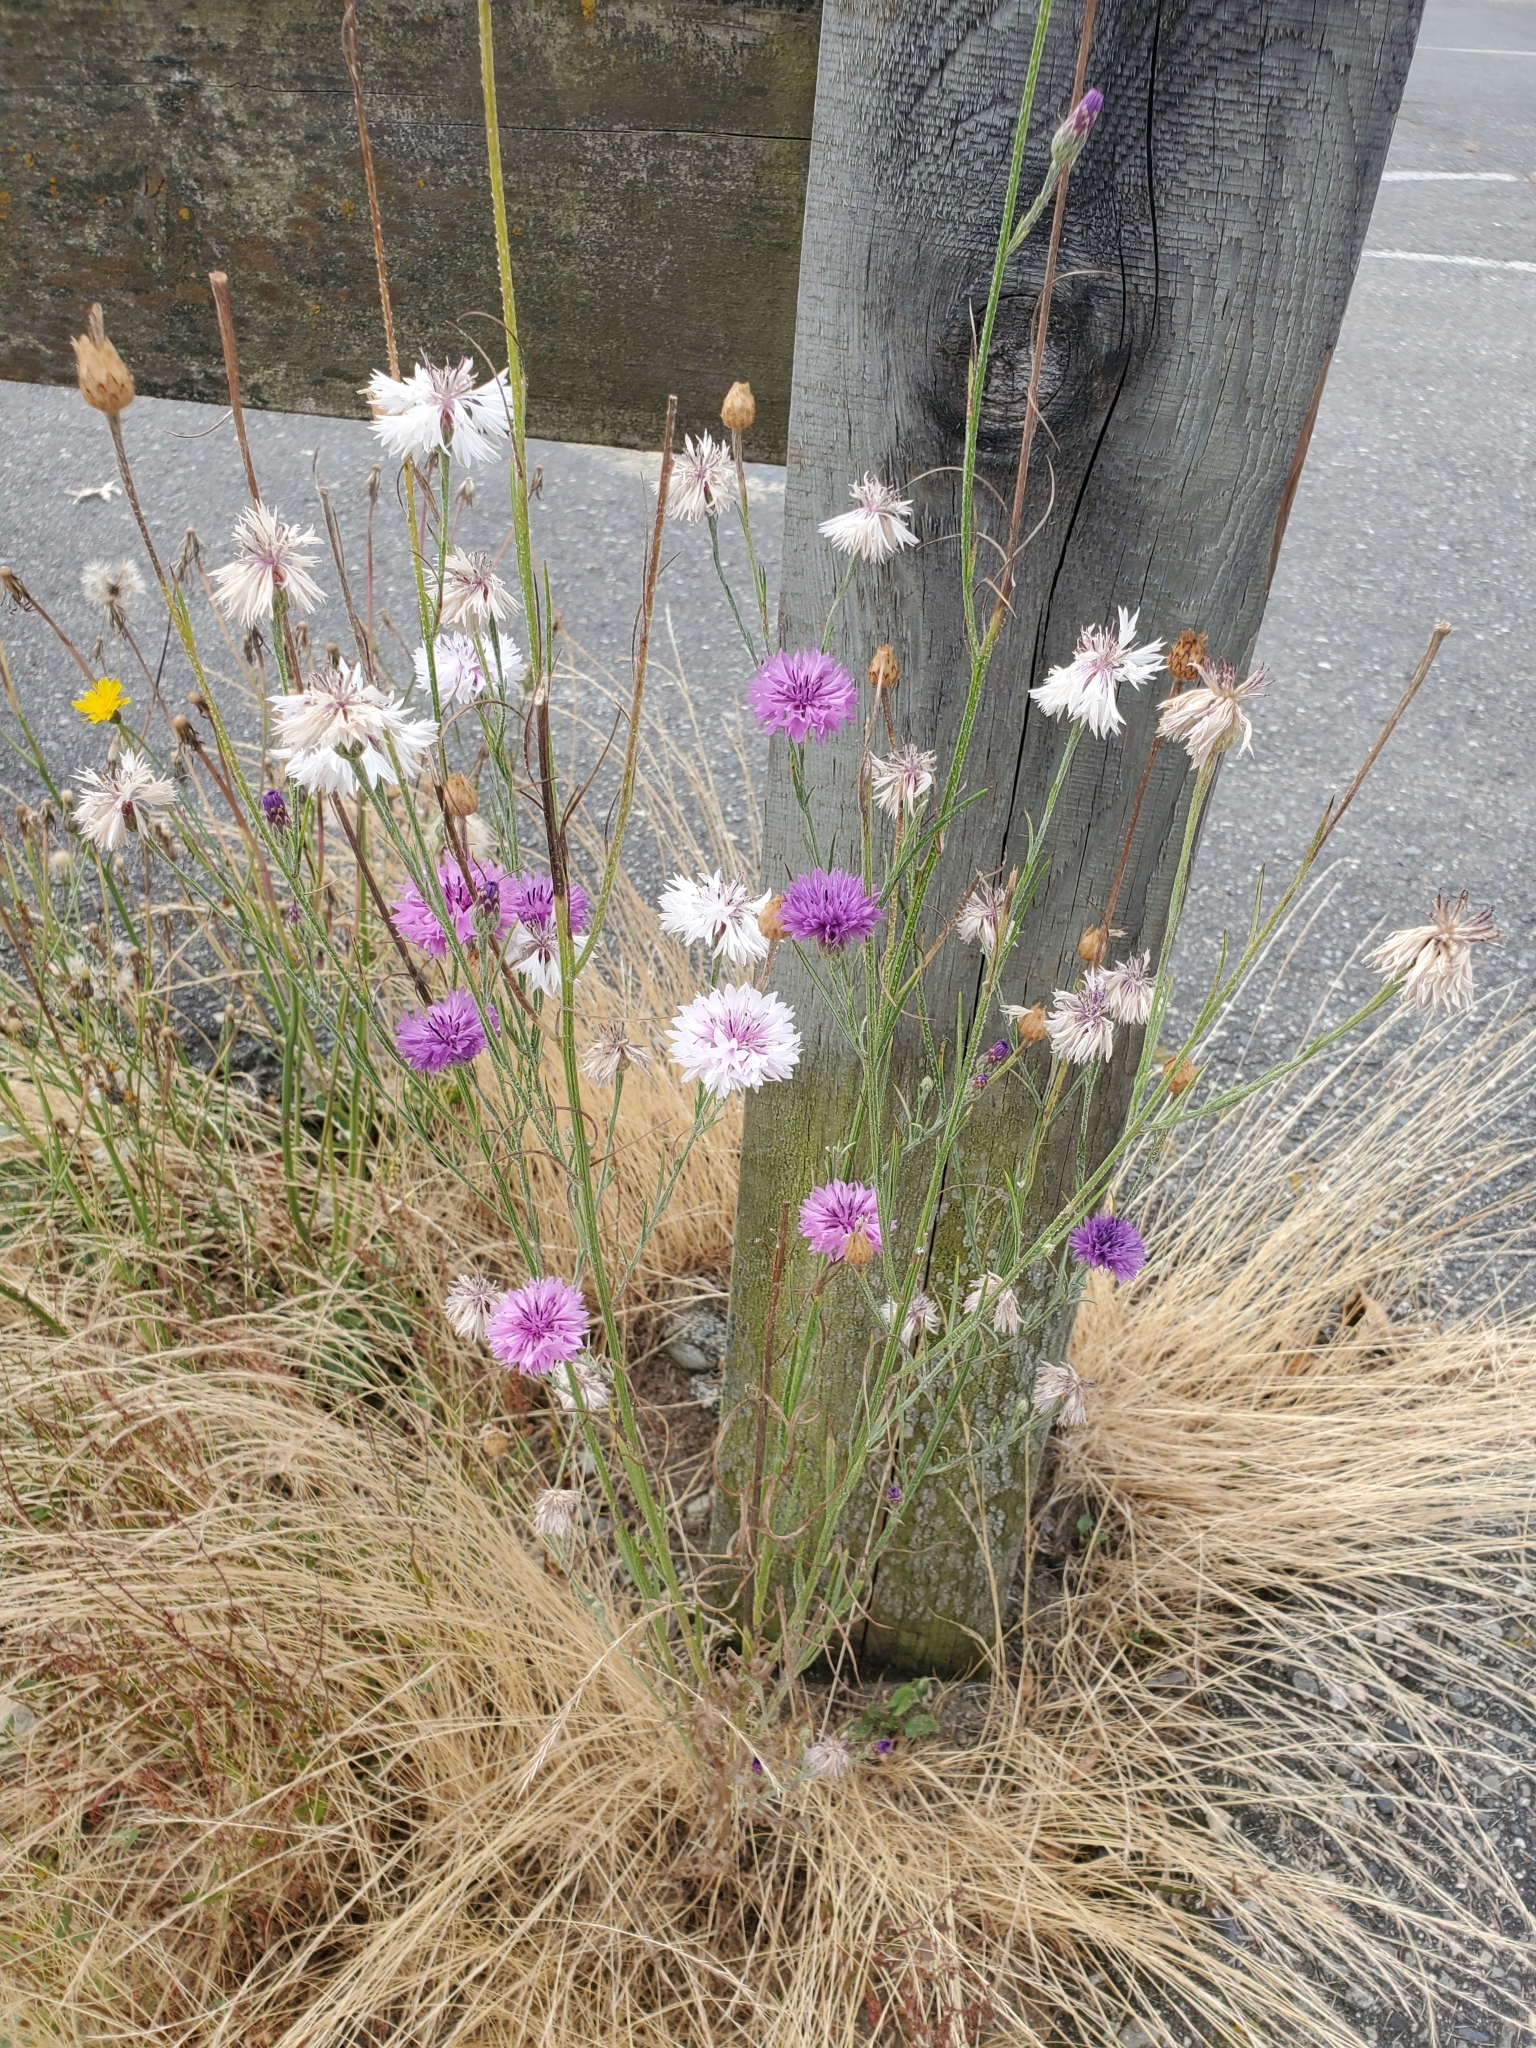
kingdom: Plantae
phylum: Tracheophyta
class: Magnoliopsida
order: Asterales
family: Asteraceae
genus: Centaurea
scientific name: Centaurea cyanus
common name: Cornflower
